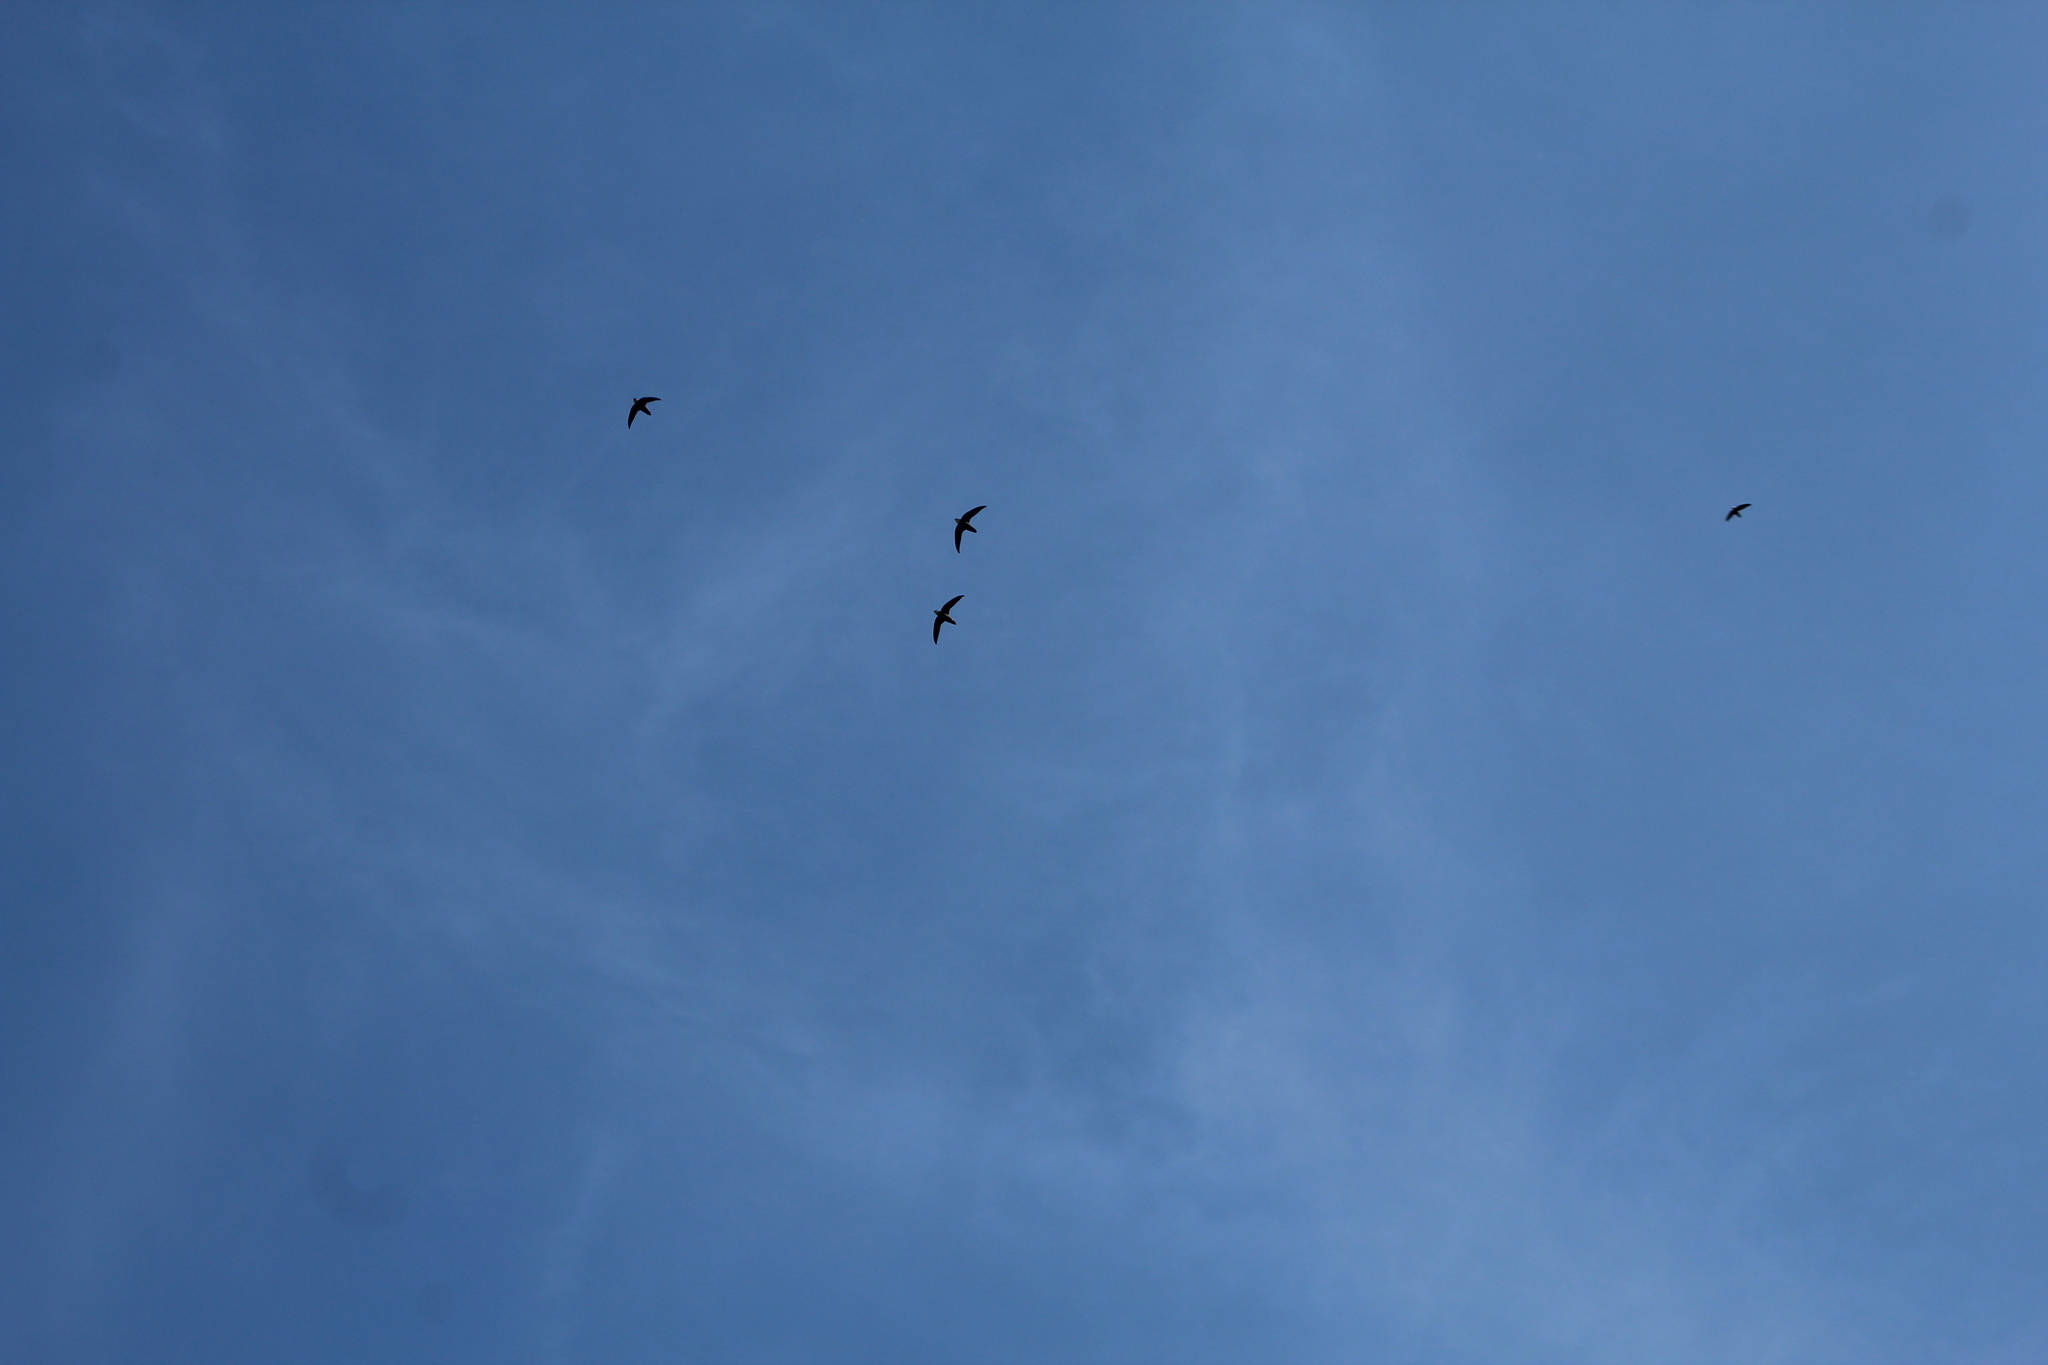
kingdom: Animalia
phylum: Chordata
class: Aves
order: Apodiformes
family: Apodidae
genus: Chaetura
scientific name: Chaetura pelagica
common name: Chimney swift
